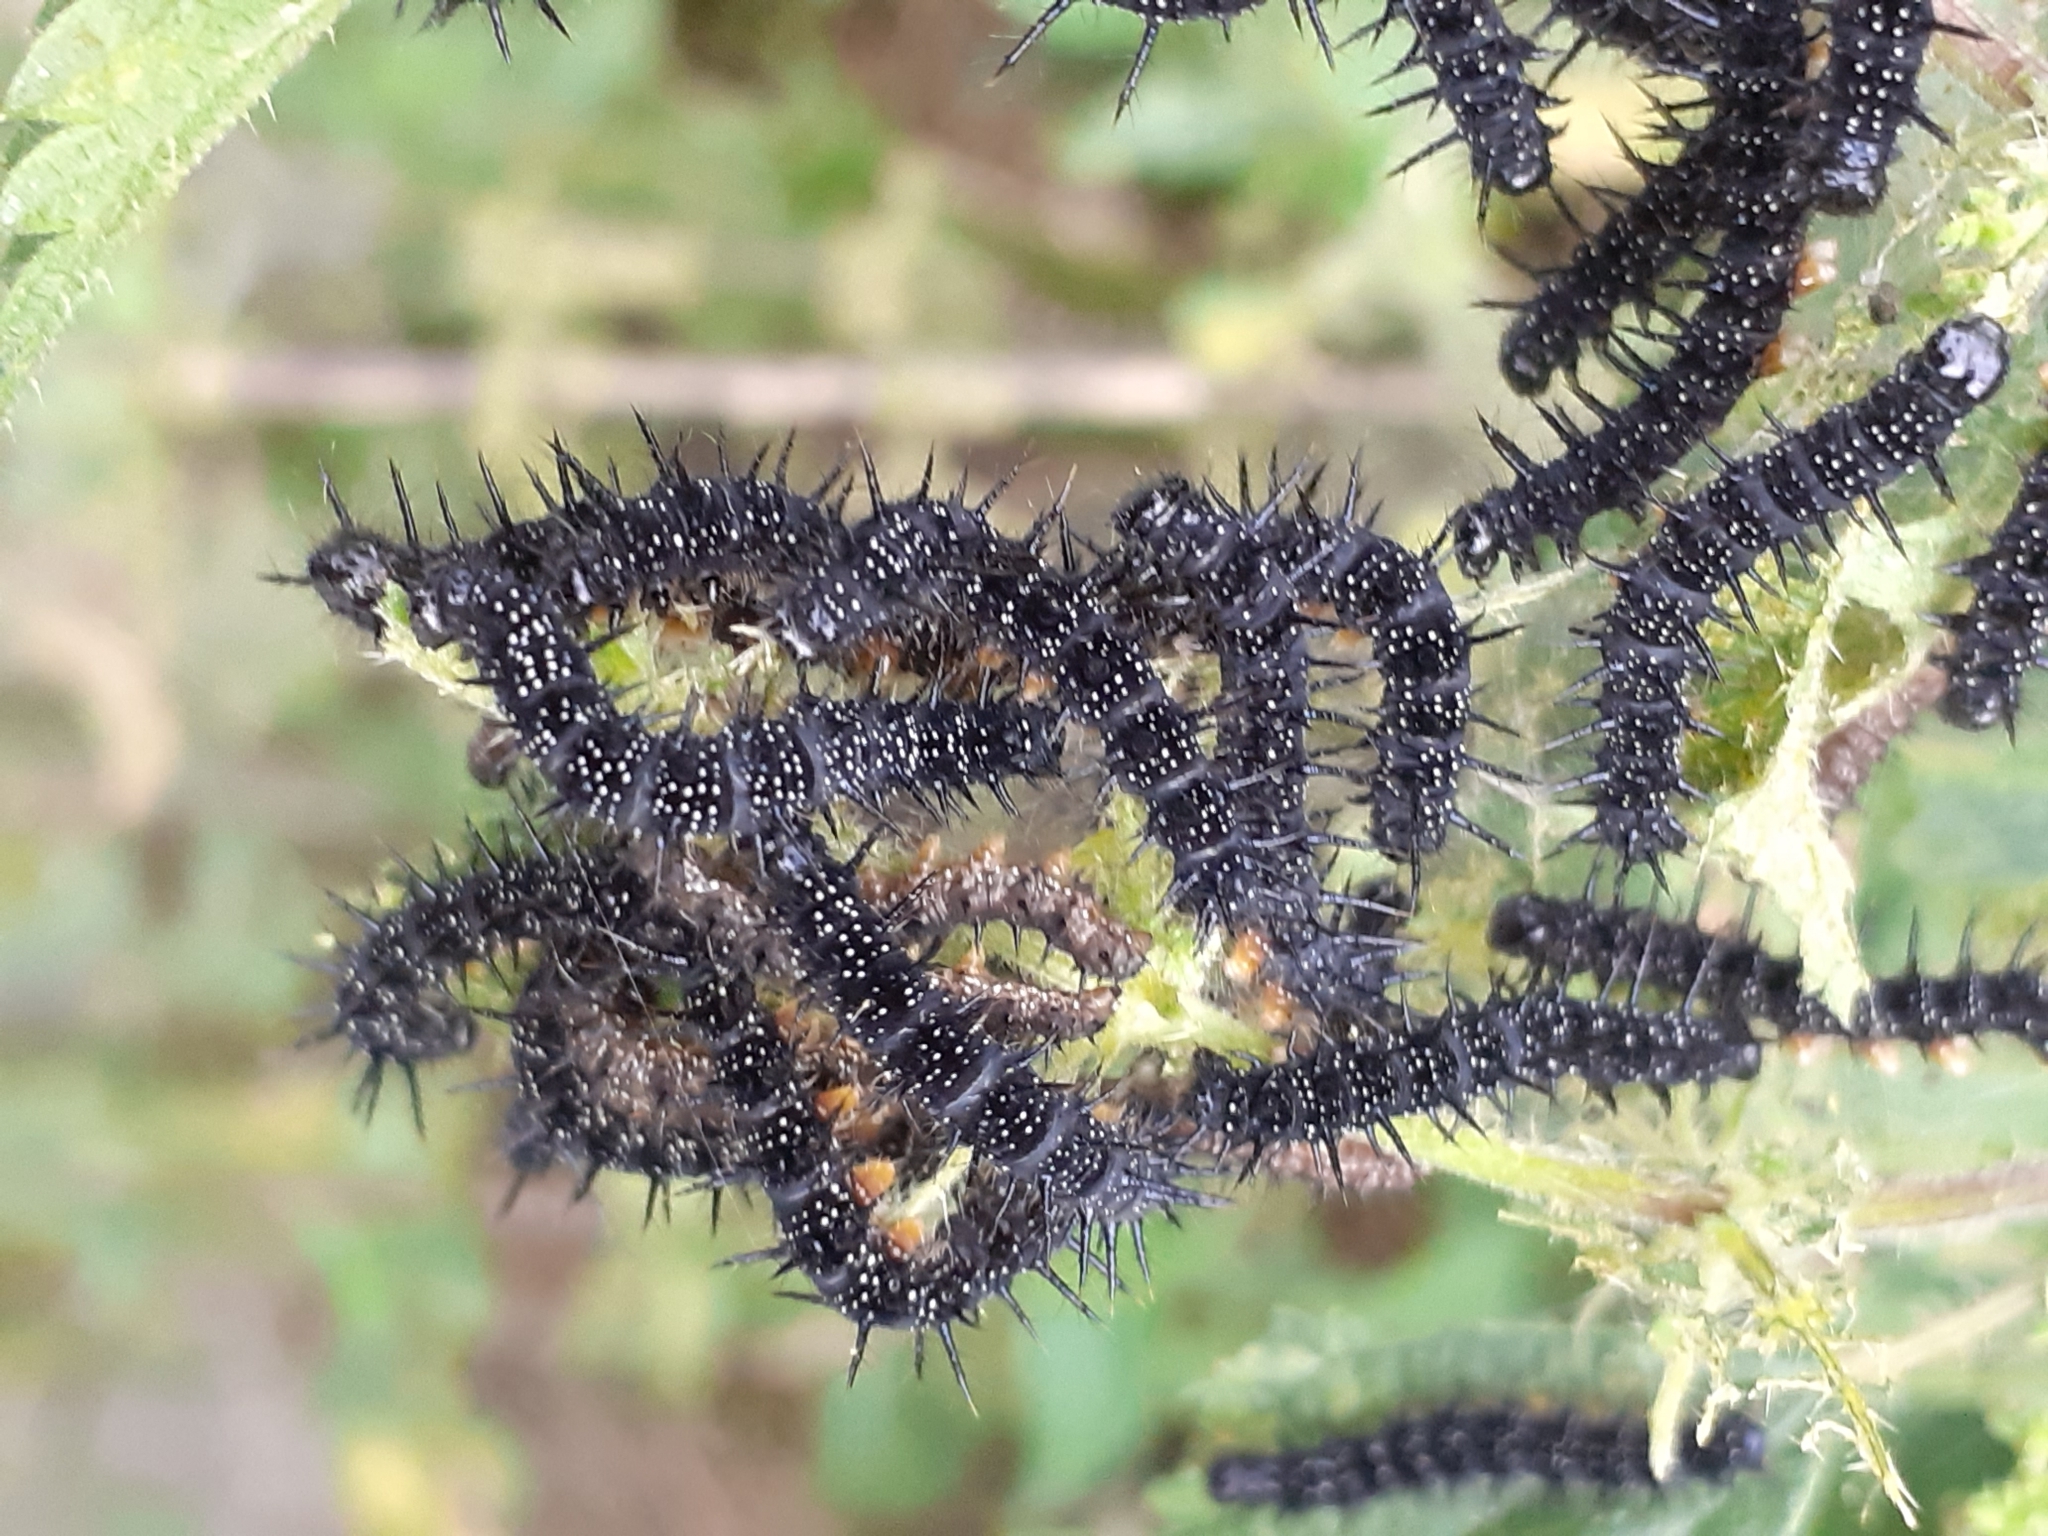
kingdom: Animalia
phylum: Arthropoda
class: Insecta
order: Lepidoptera
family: Nymphalidae
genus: Aglais
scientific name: Aglais io
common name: Peacock
